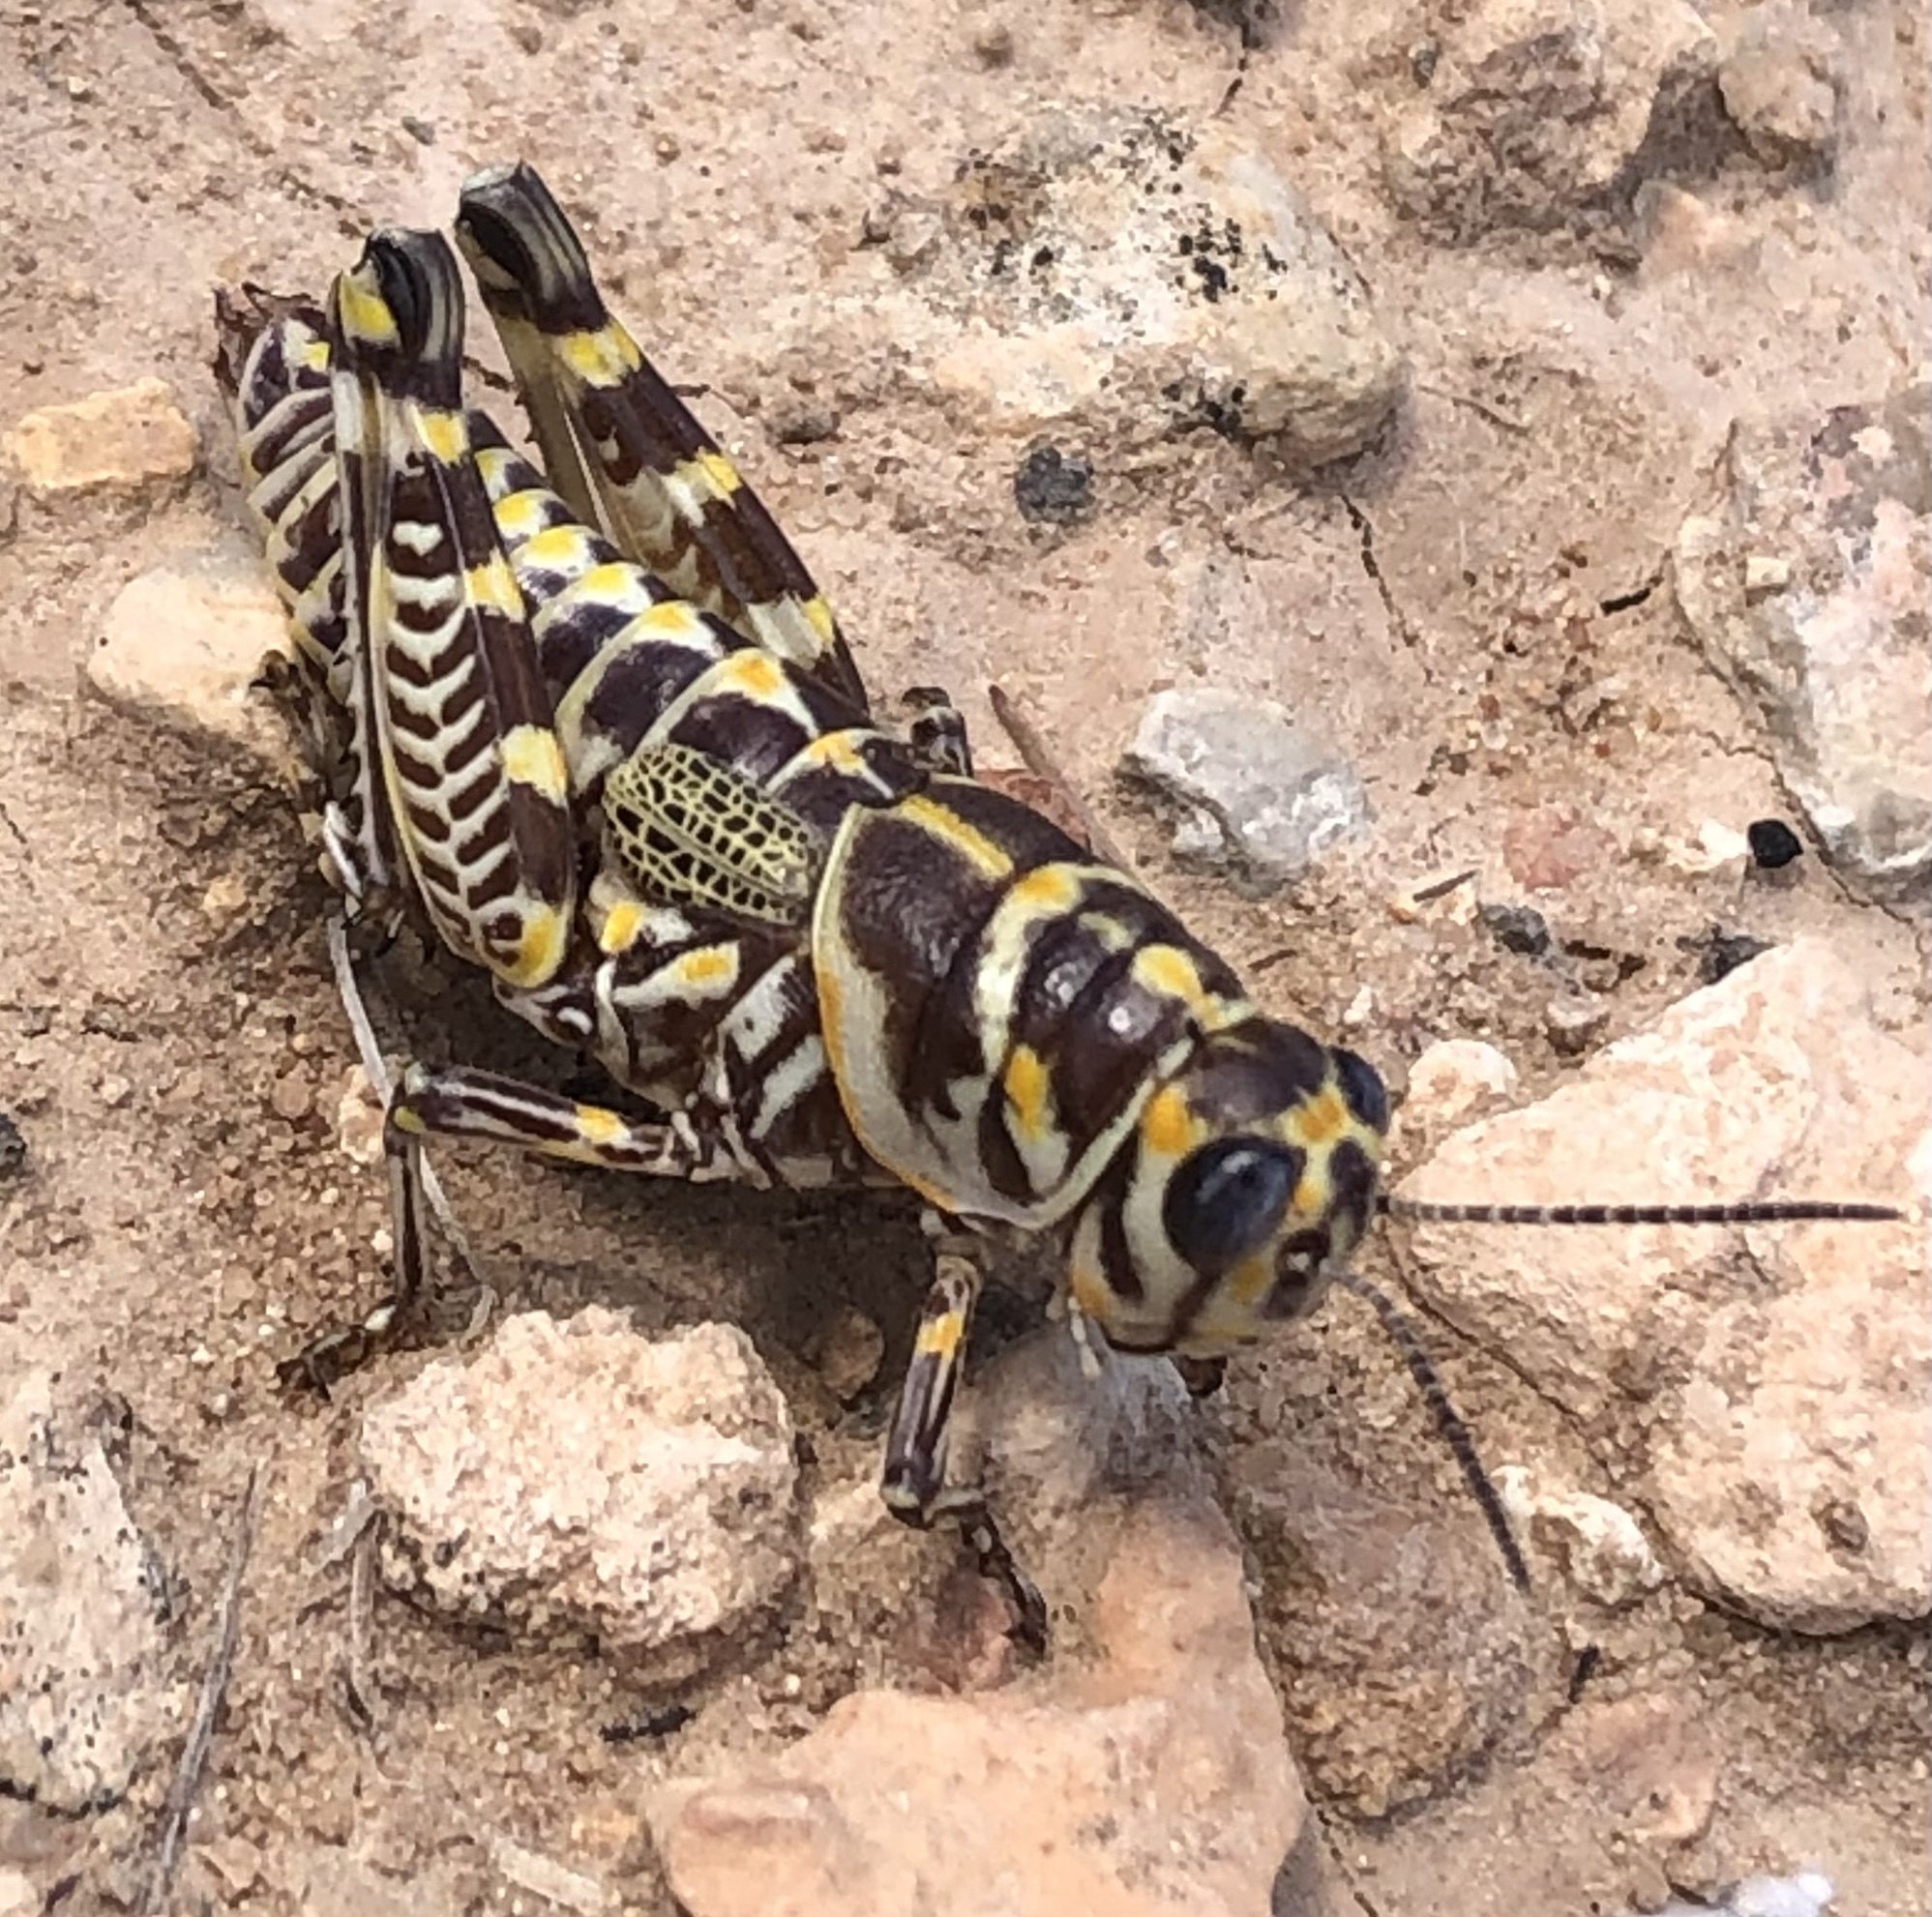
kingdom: Animalia
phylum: Arthropoda
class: Insecta
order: Orthoptera
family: Acrididae
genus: Dactylotum
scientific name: Dactylotum bicolor
